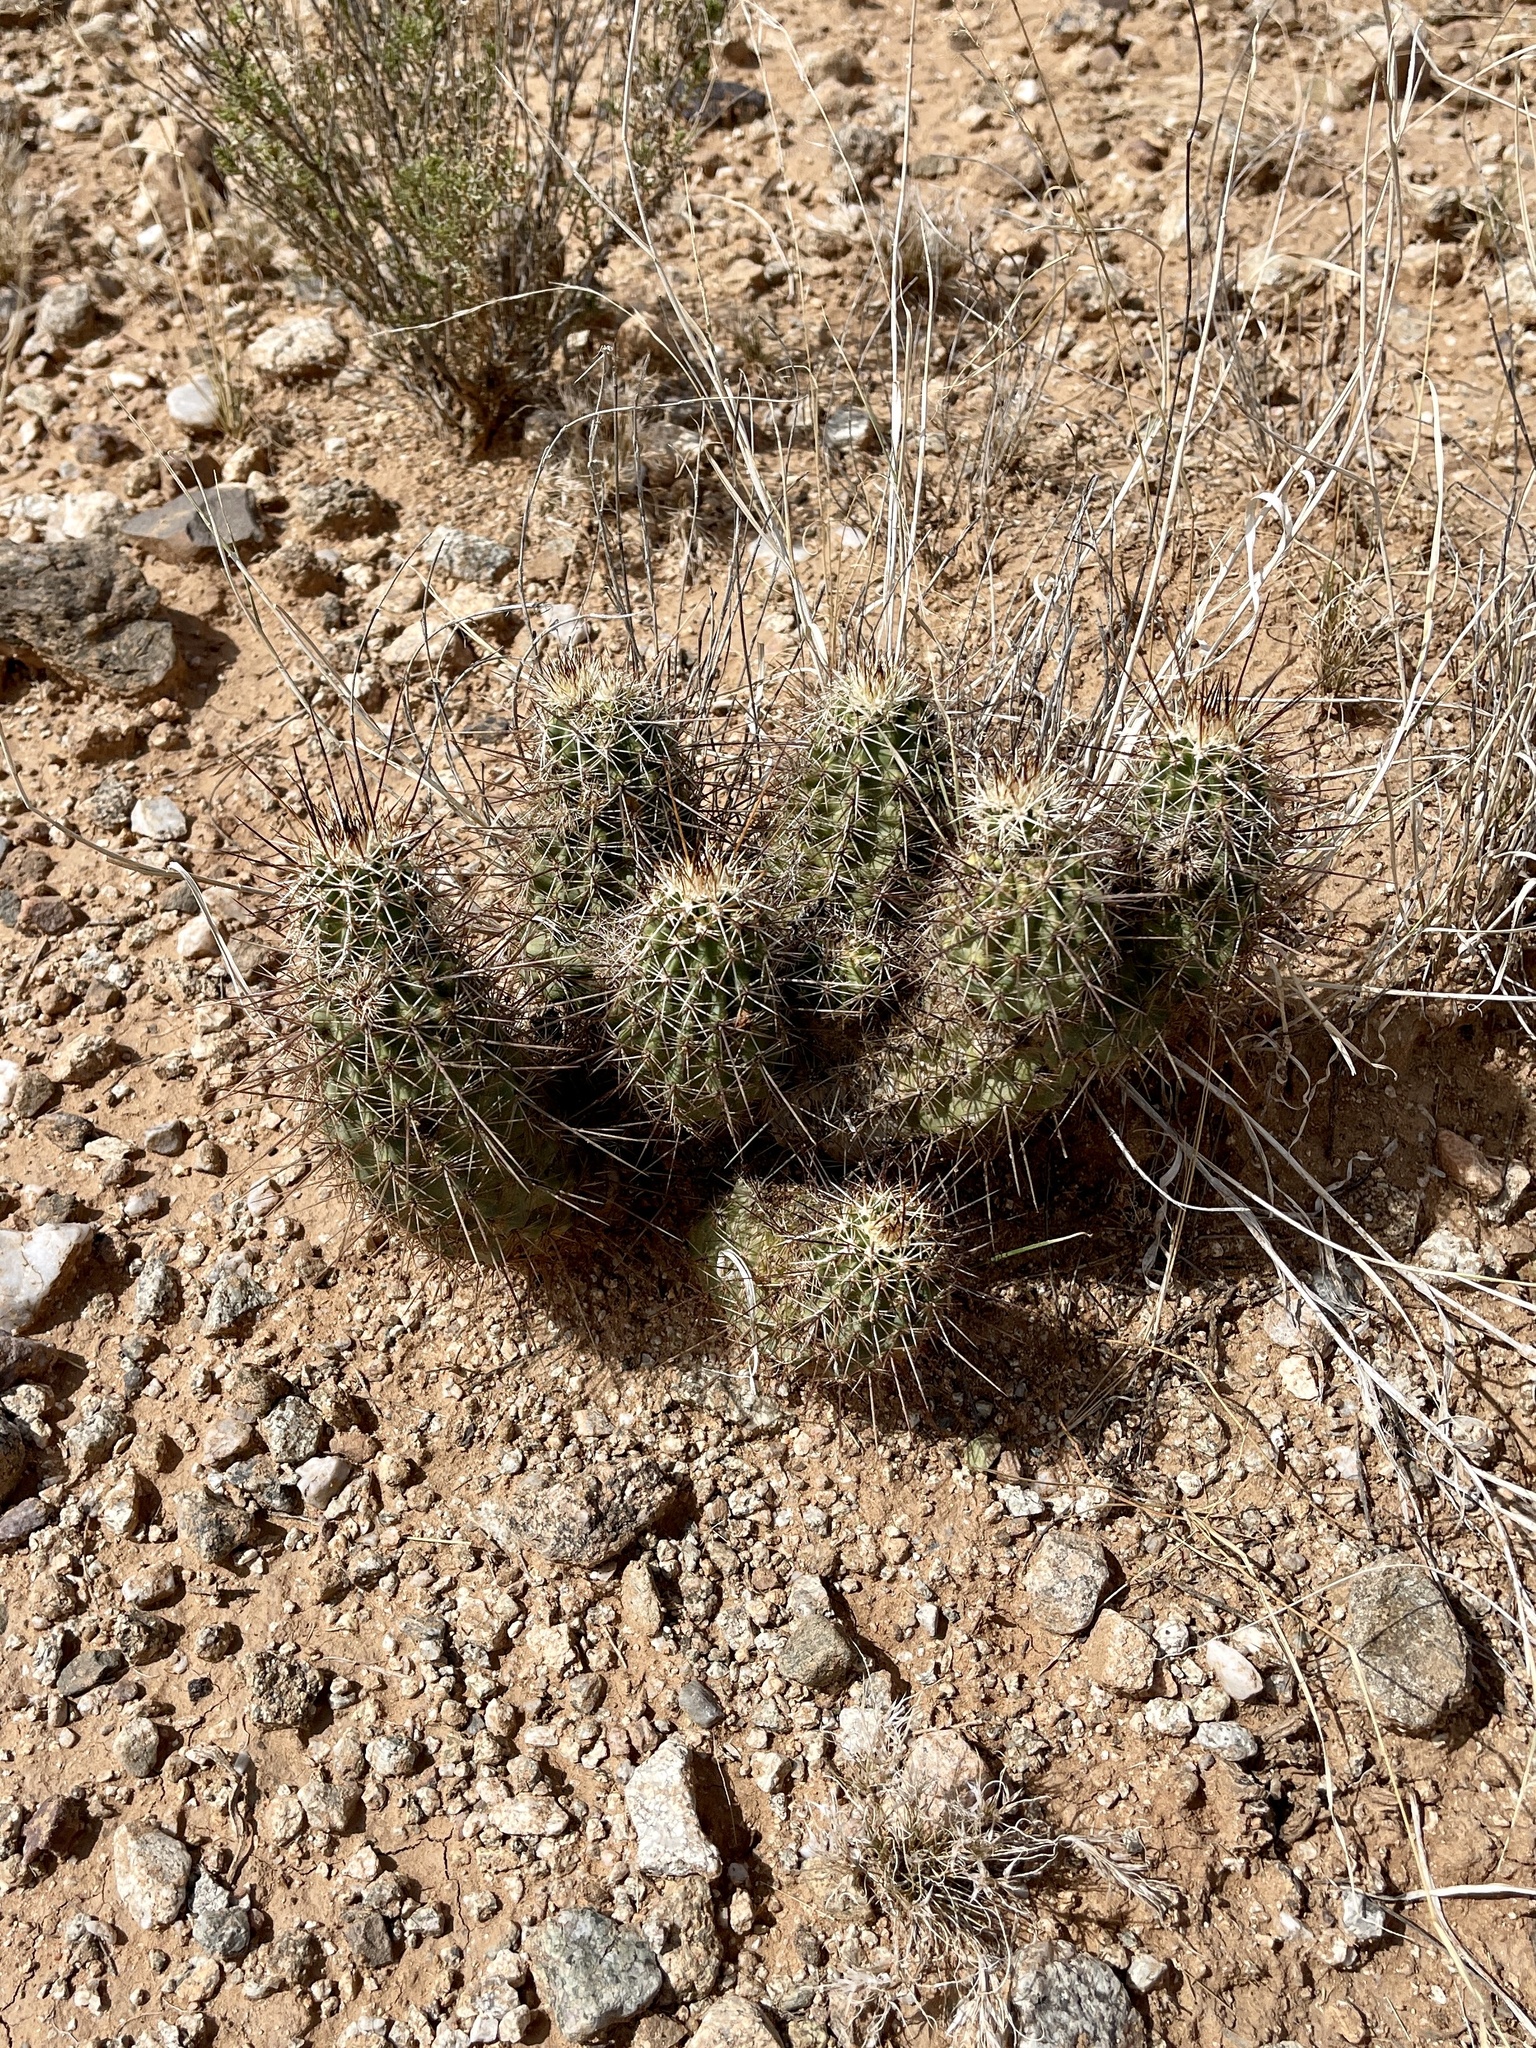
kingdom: Plantae
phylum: Tracheophyta
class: Magnoliopsida
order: Caryophyllales
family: Cactaceae
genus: Echinocereus
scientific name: Echinocereus fasciculatus
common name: Bundle hedgehog
